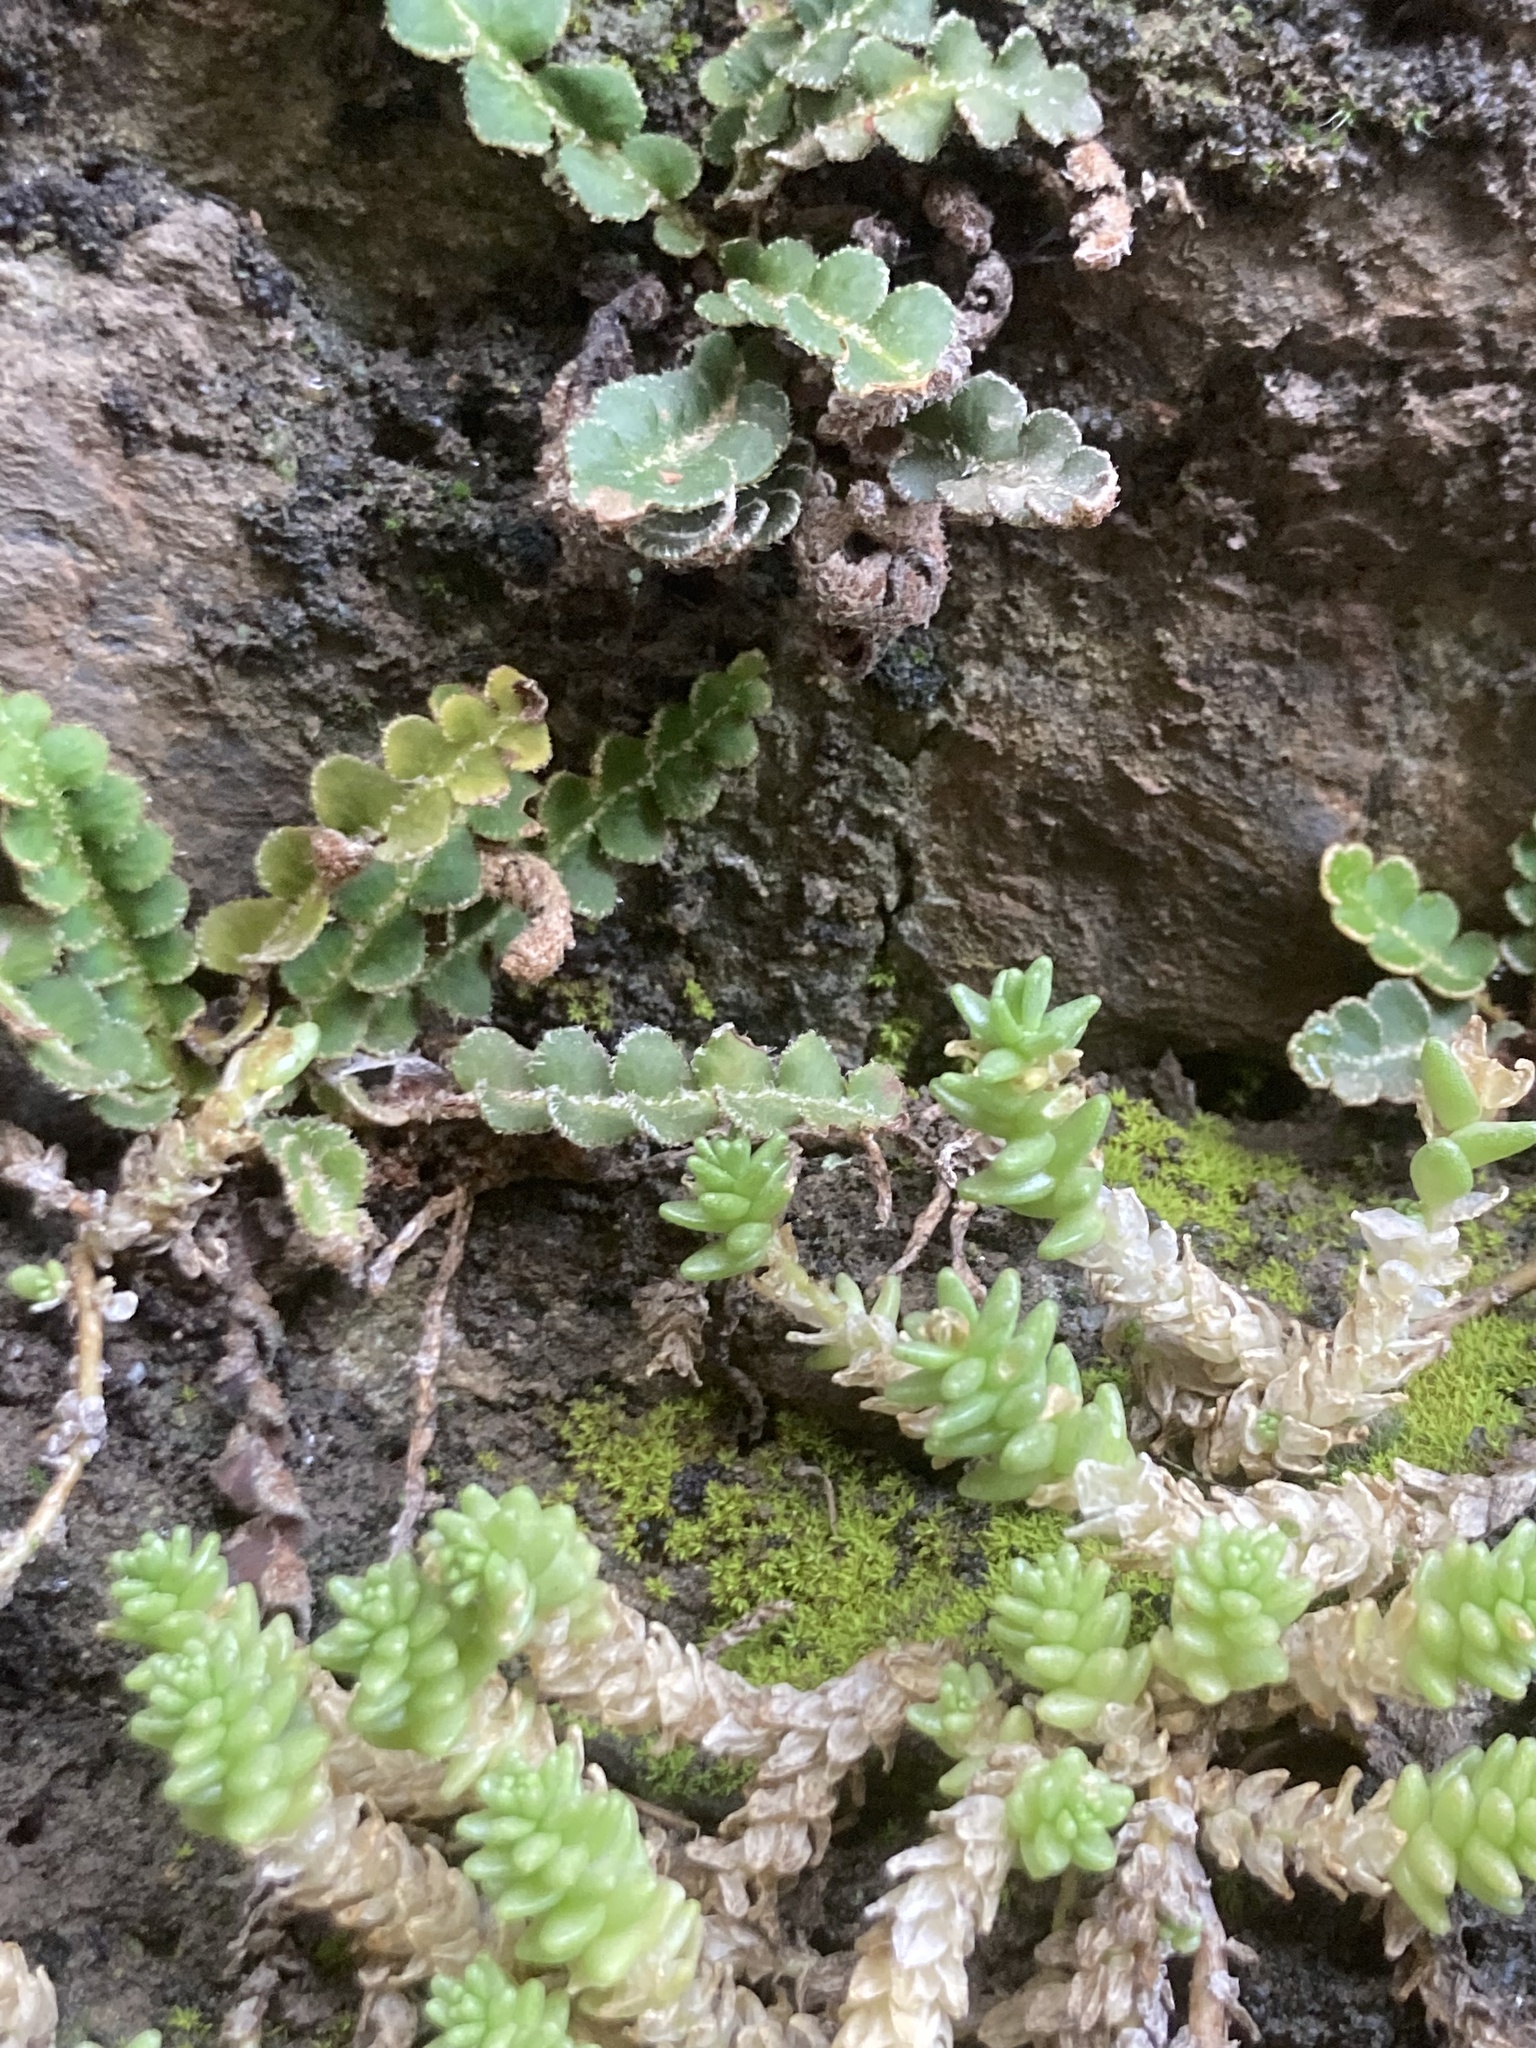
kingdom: Plantae
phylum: Tracheophyta
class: Polypodiopsida
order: Polypodiales
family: Aspleniaceae
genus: Asplenium
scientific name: Asplenium ceterach
